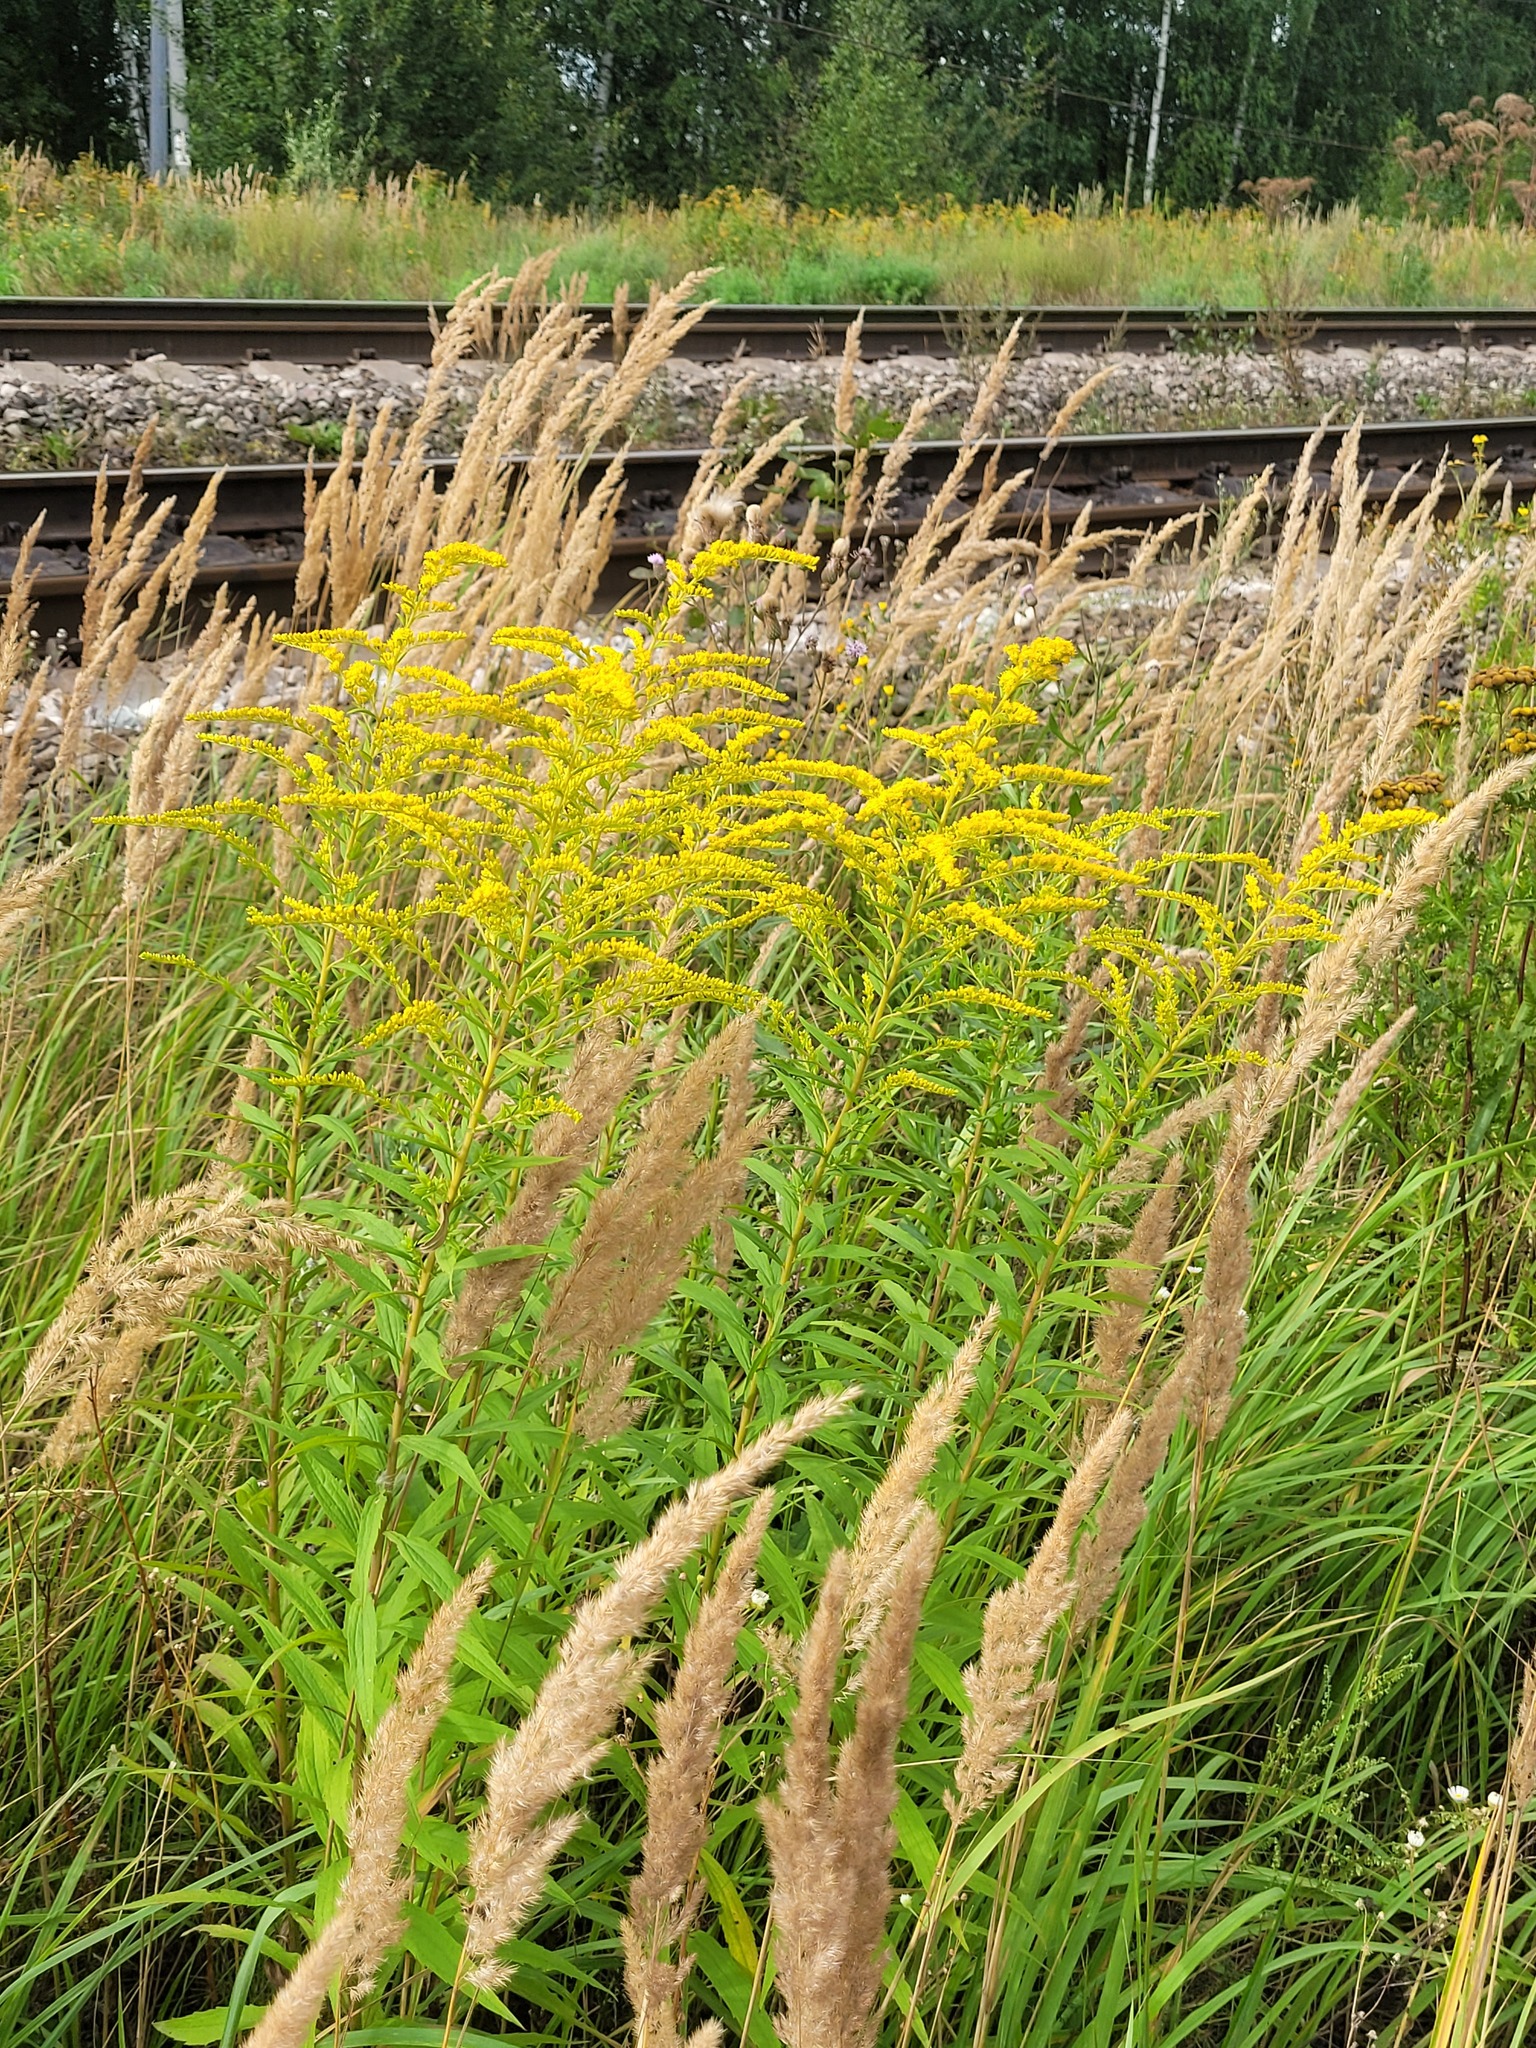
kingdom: Plantae
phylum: Tracheophyta
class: Magnoliopsida
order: Asterales
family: Asteraceae
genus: Solidago
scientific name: Solidago canadensis
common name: Canada goldenrod
